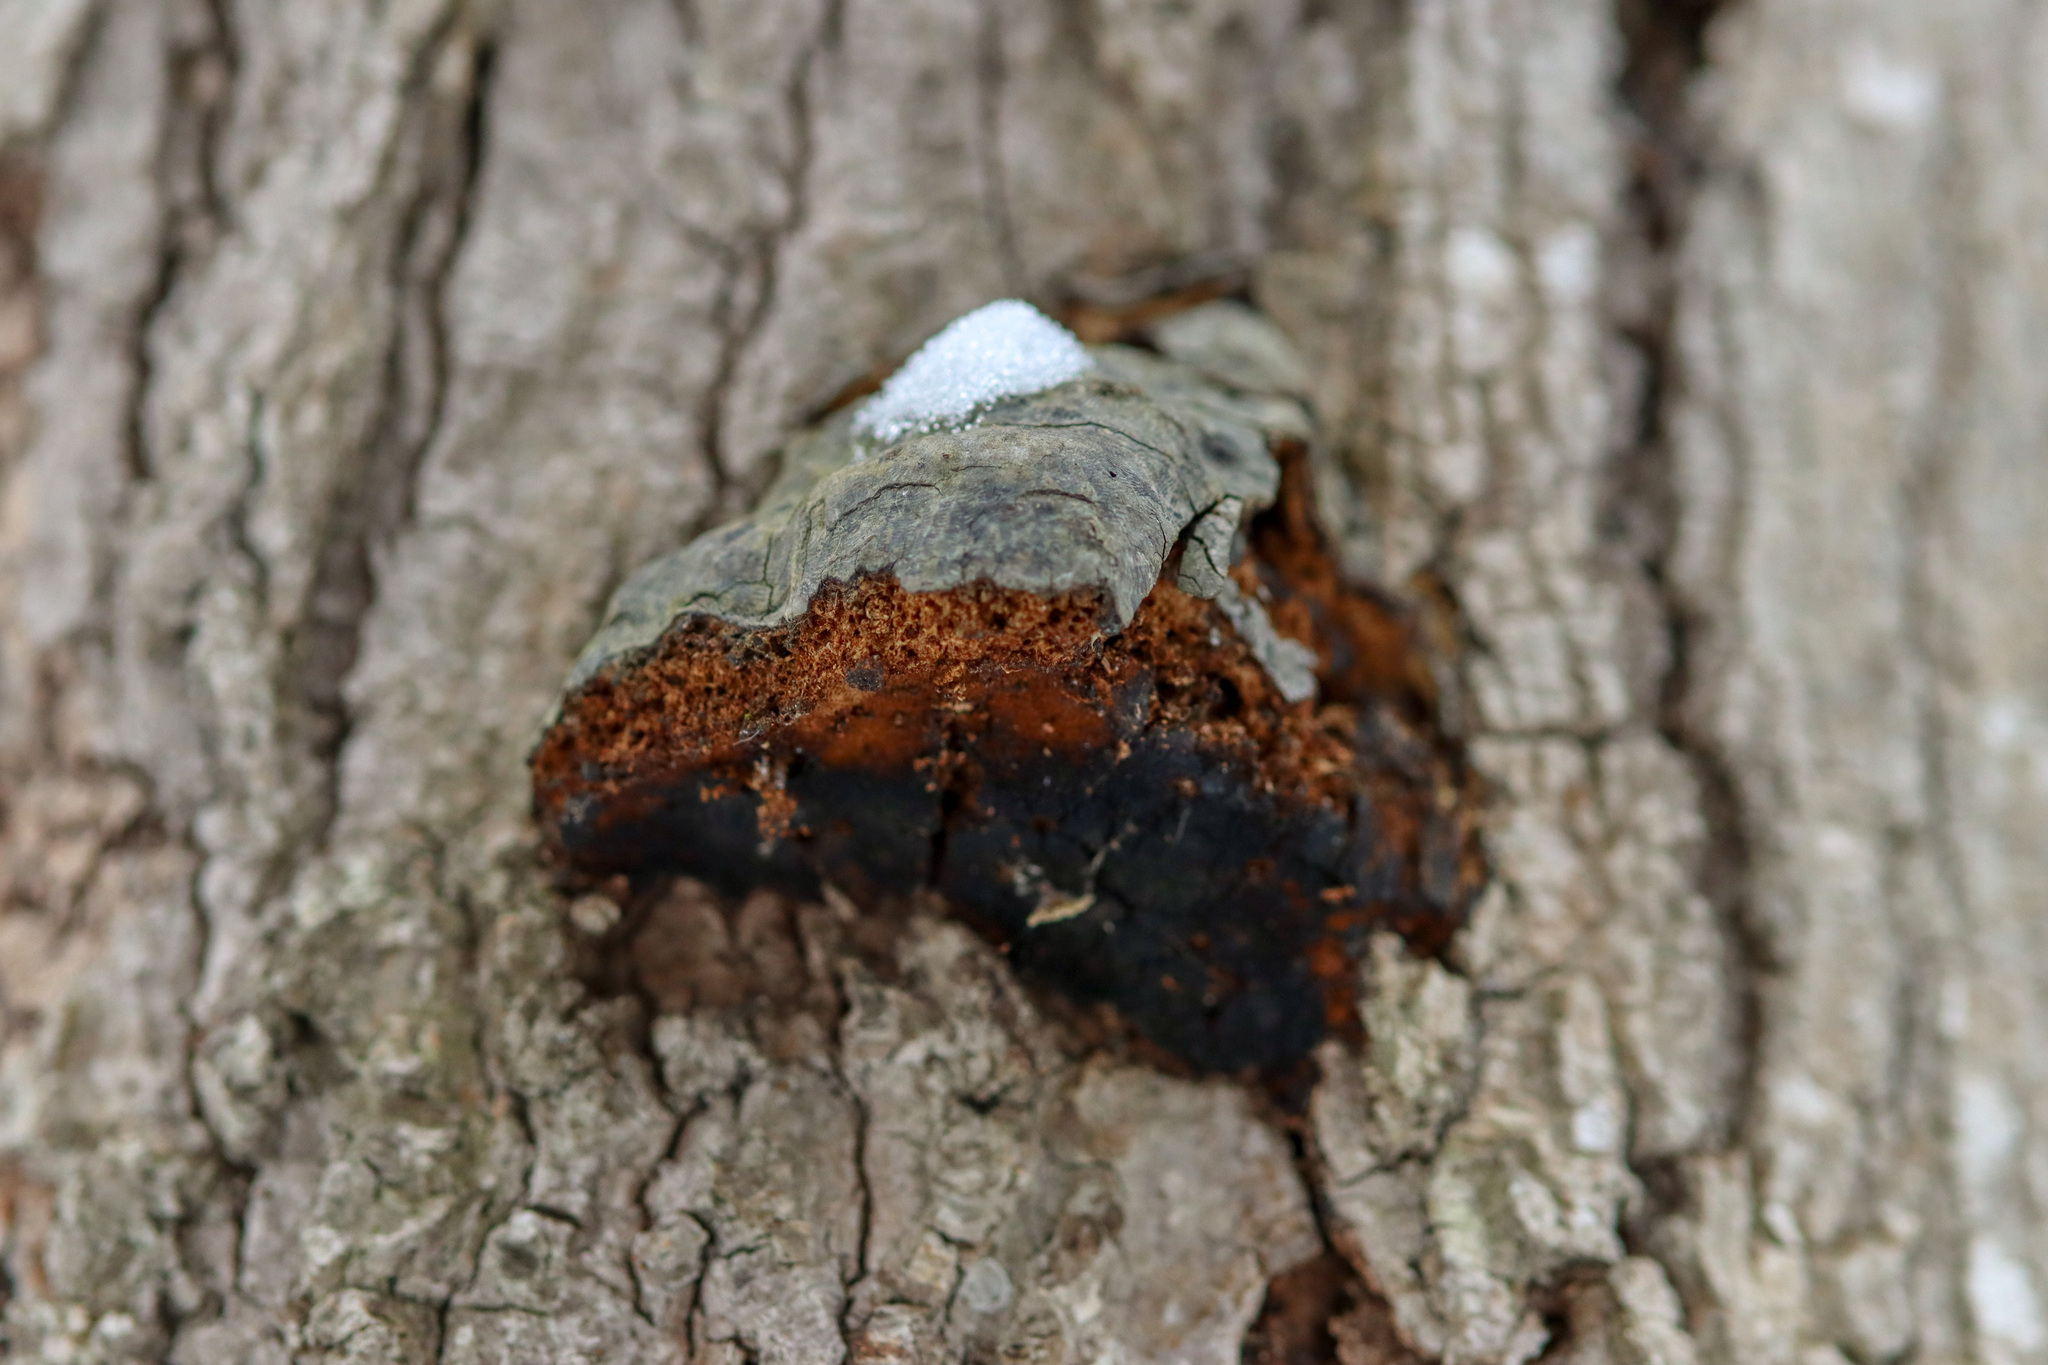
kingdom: Fungi
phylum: Basidiomycota
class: Agaricomycetes
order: Polyporales
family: Polyporaceae
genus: Fomes
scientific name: Fomes fomentarius
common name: Hoof fungus
